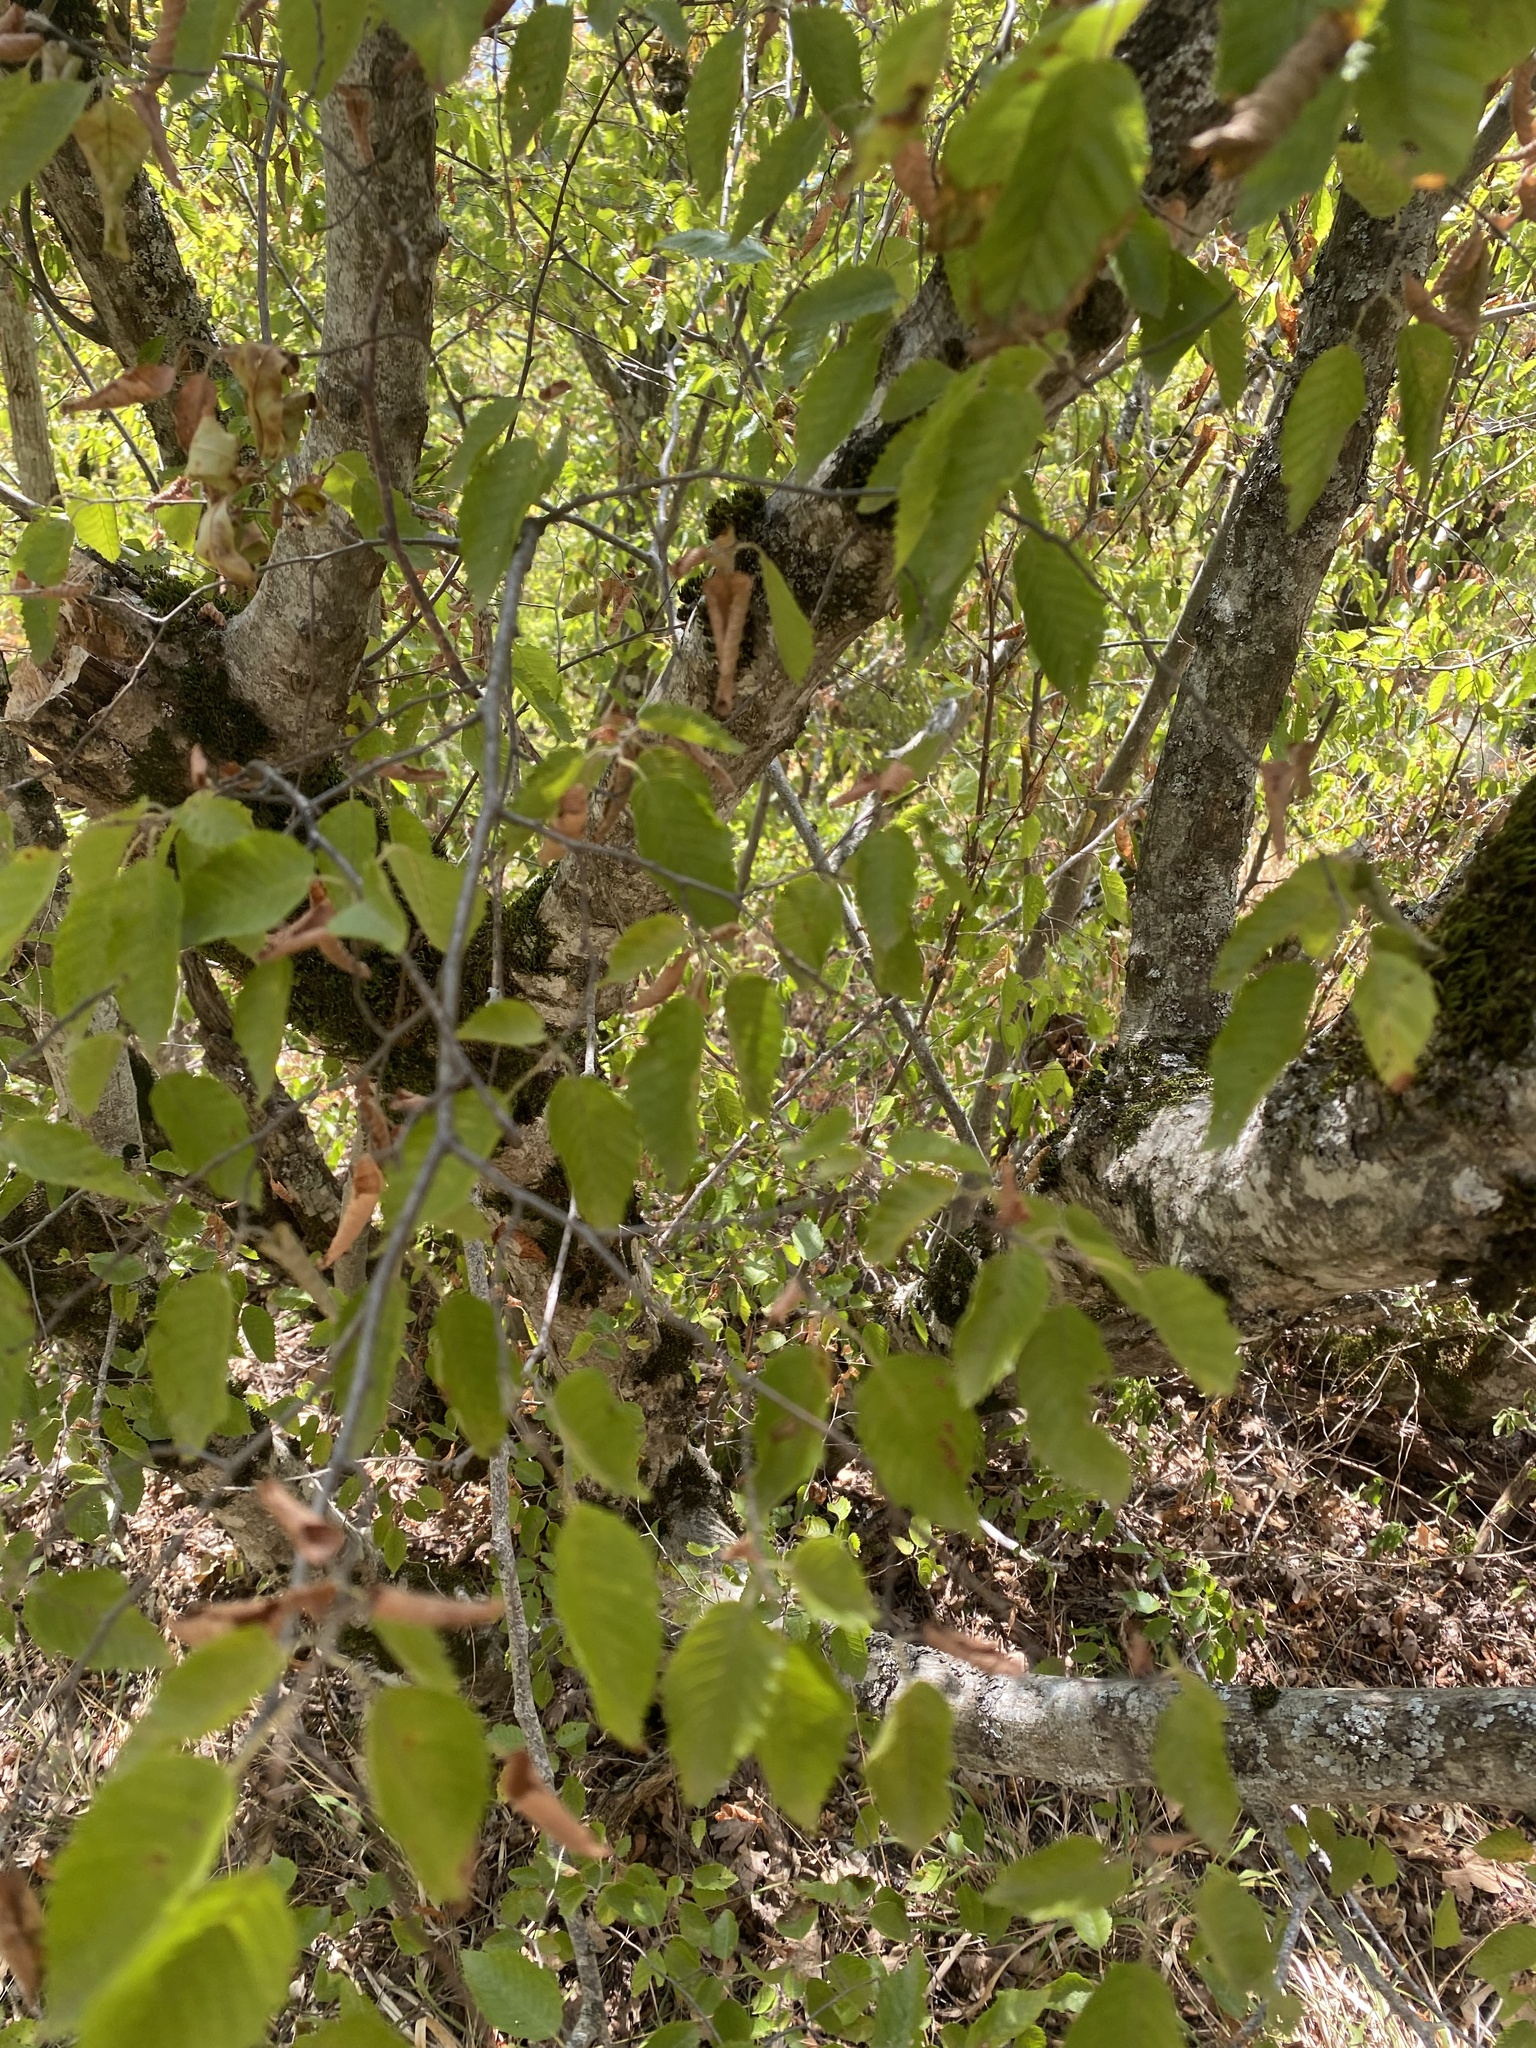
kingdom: Plantae
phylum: Tracheophyta
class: Magnoliopsida
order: Fagales
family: Betulaceae
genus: Carpinus
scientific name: Carpinus orientalis
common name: Eastern hornbeam
